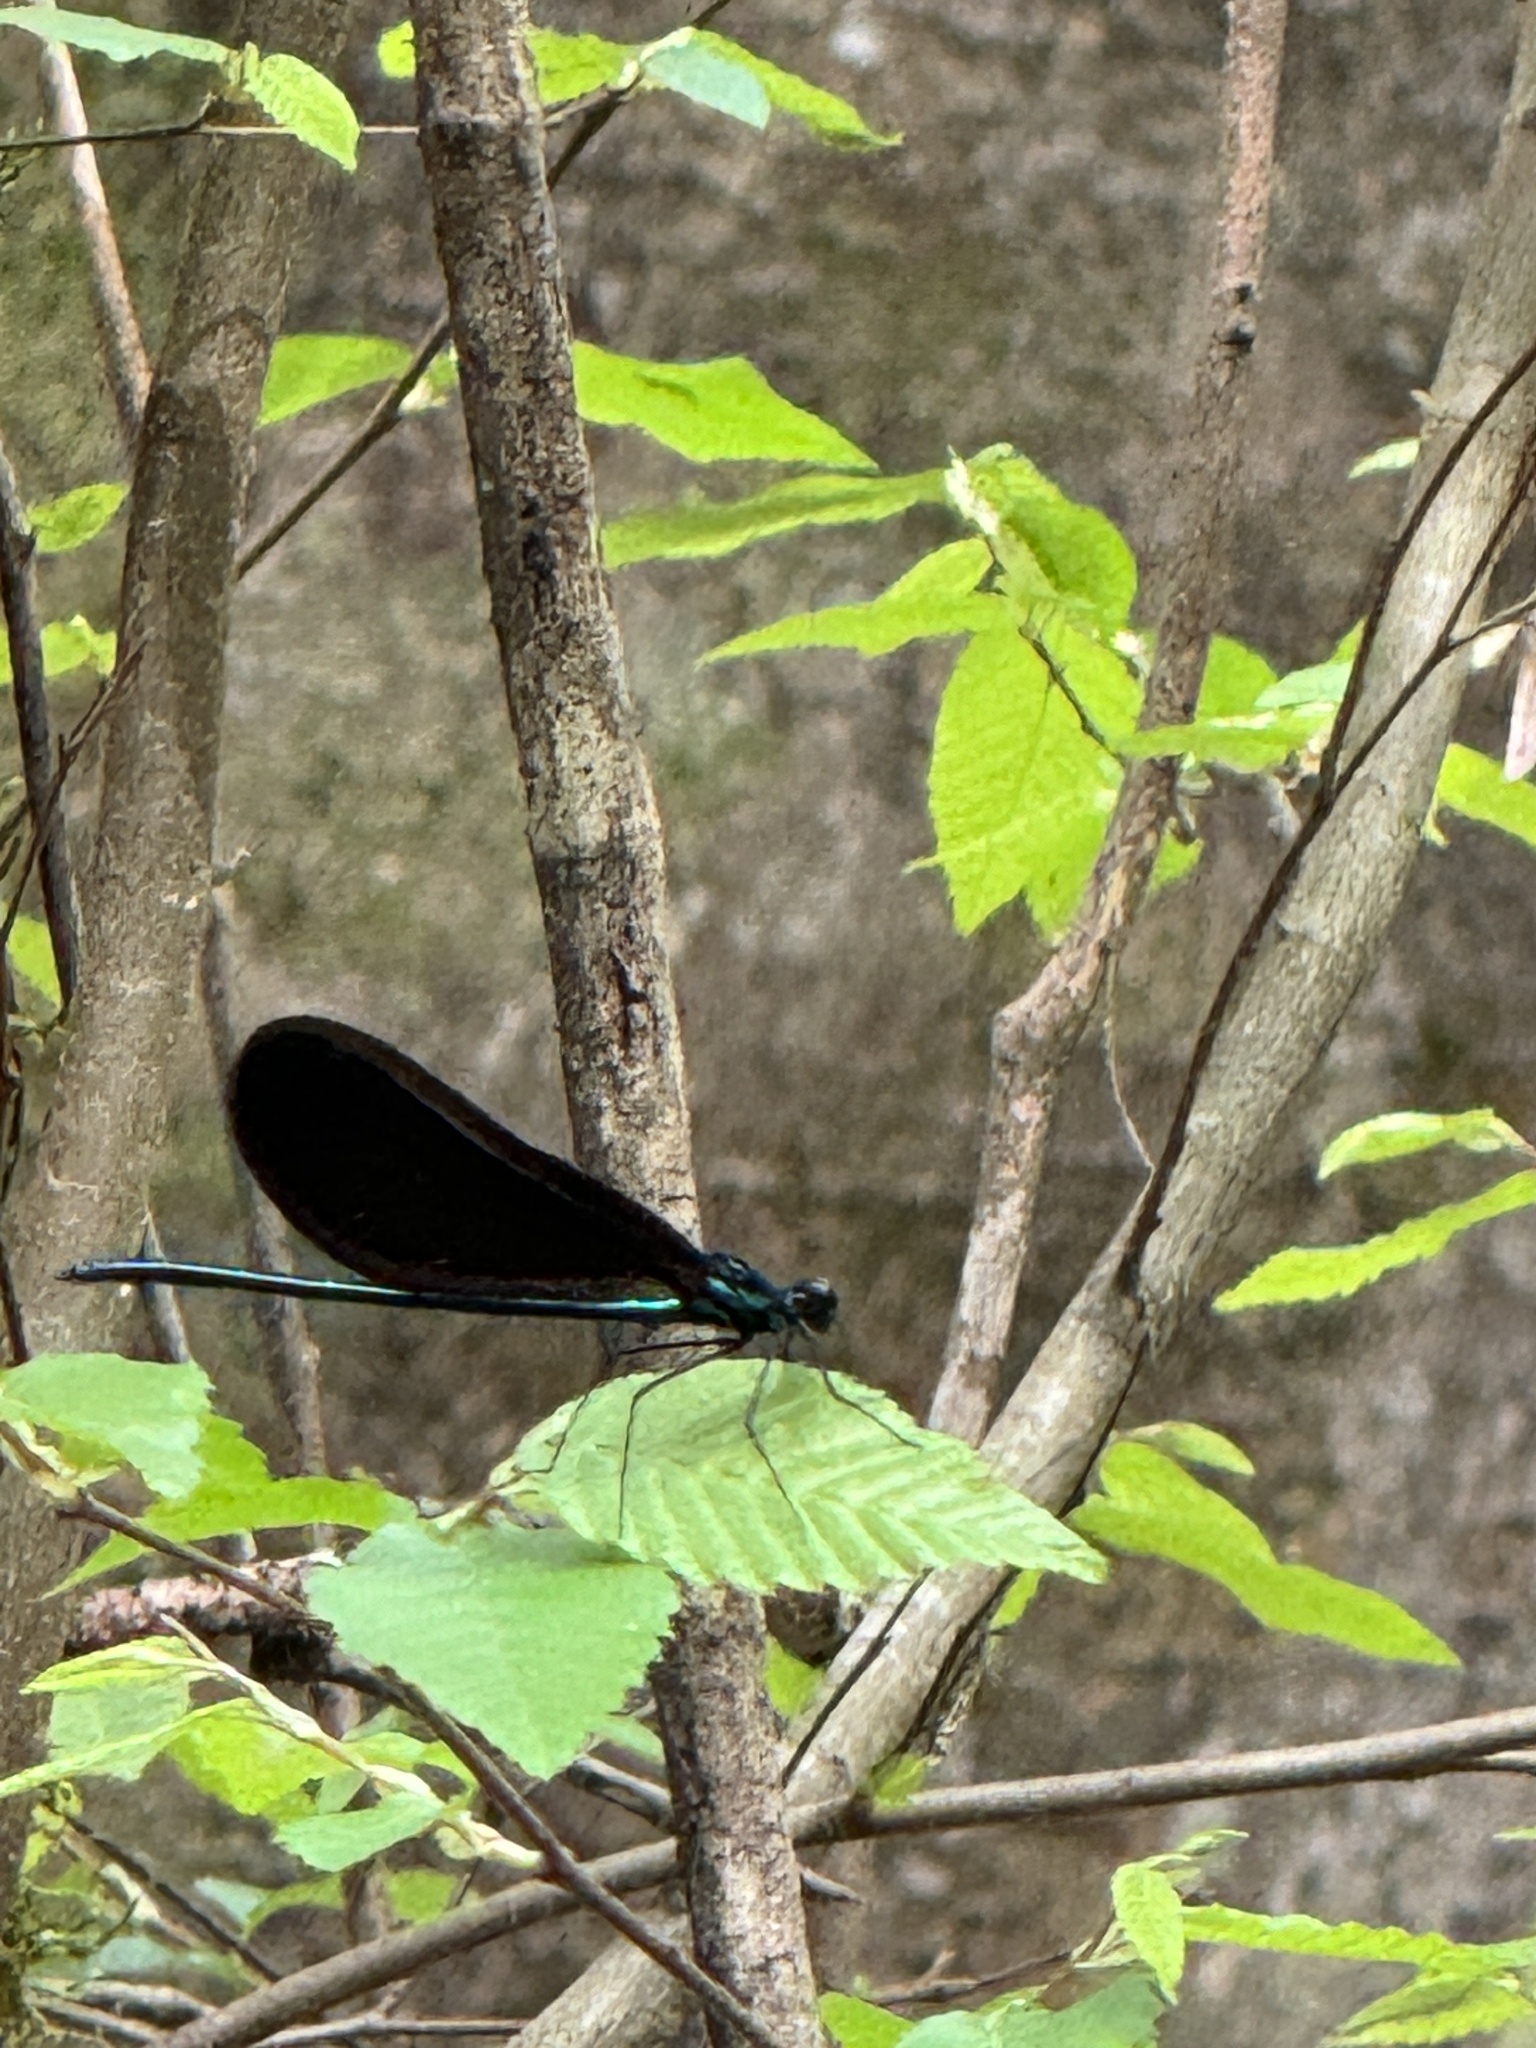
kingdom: Animalia
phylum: Arthropoda
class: Insecta
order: Odonata
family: Calopterygidae
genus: Calopteryx
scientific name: Calopteryx maculata
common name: Ebony jewelwing
